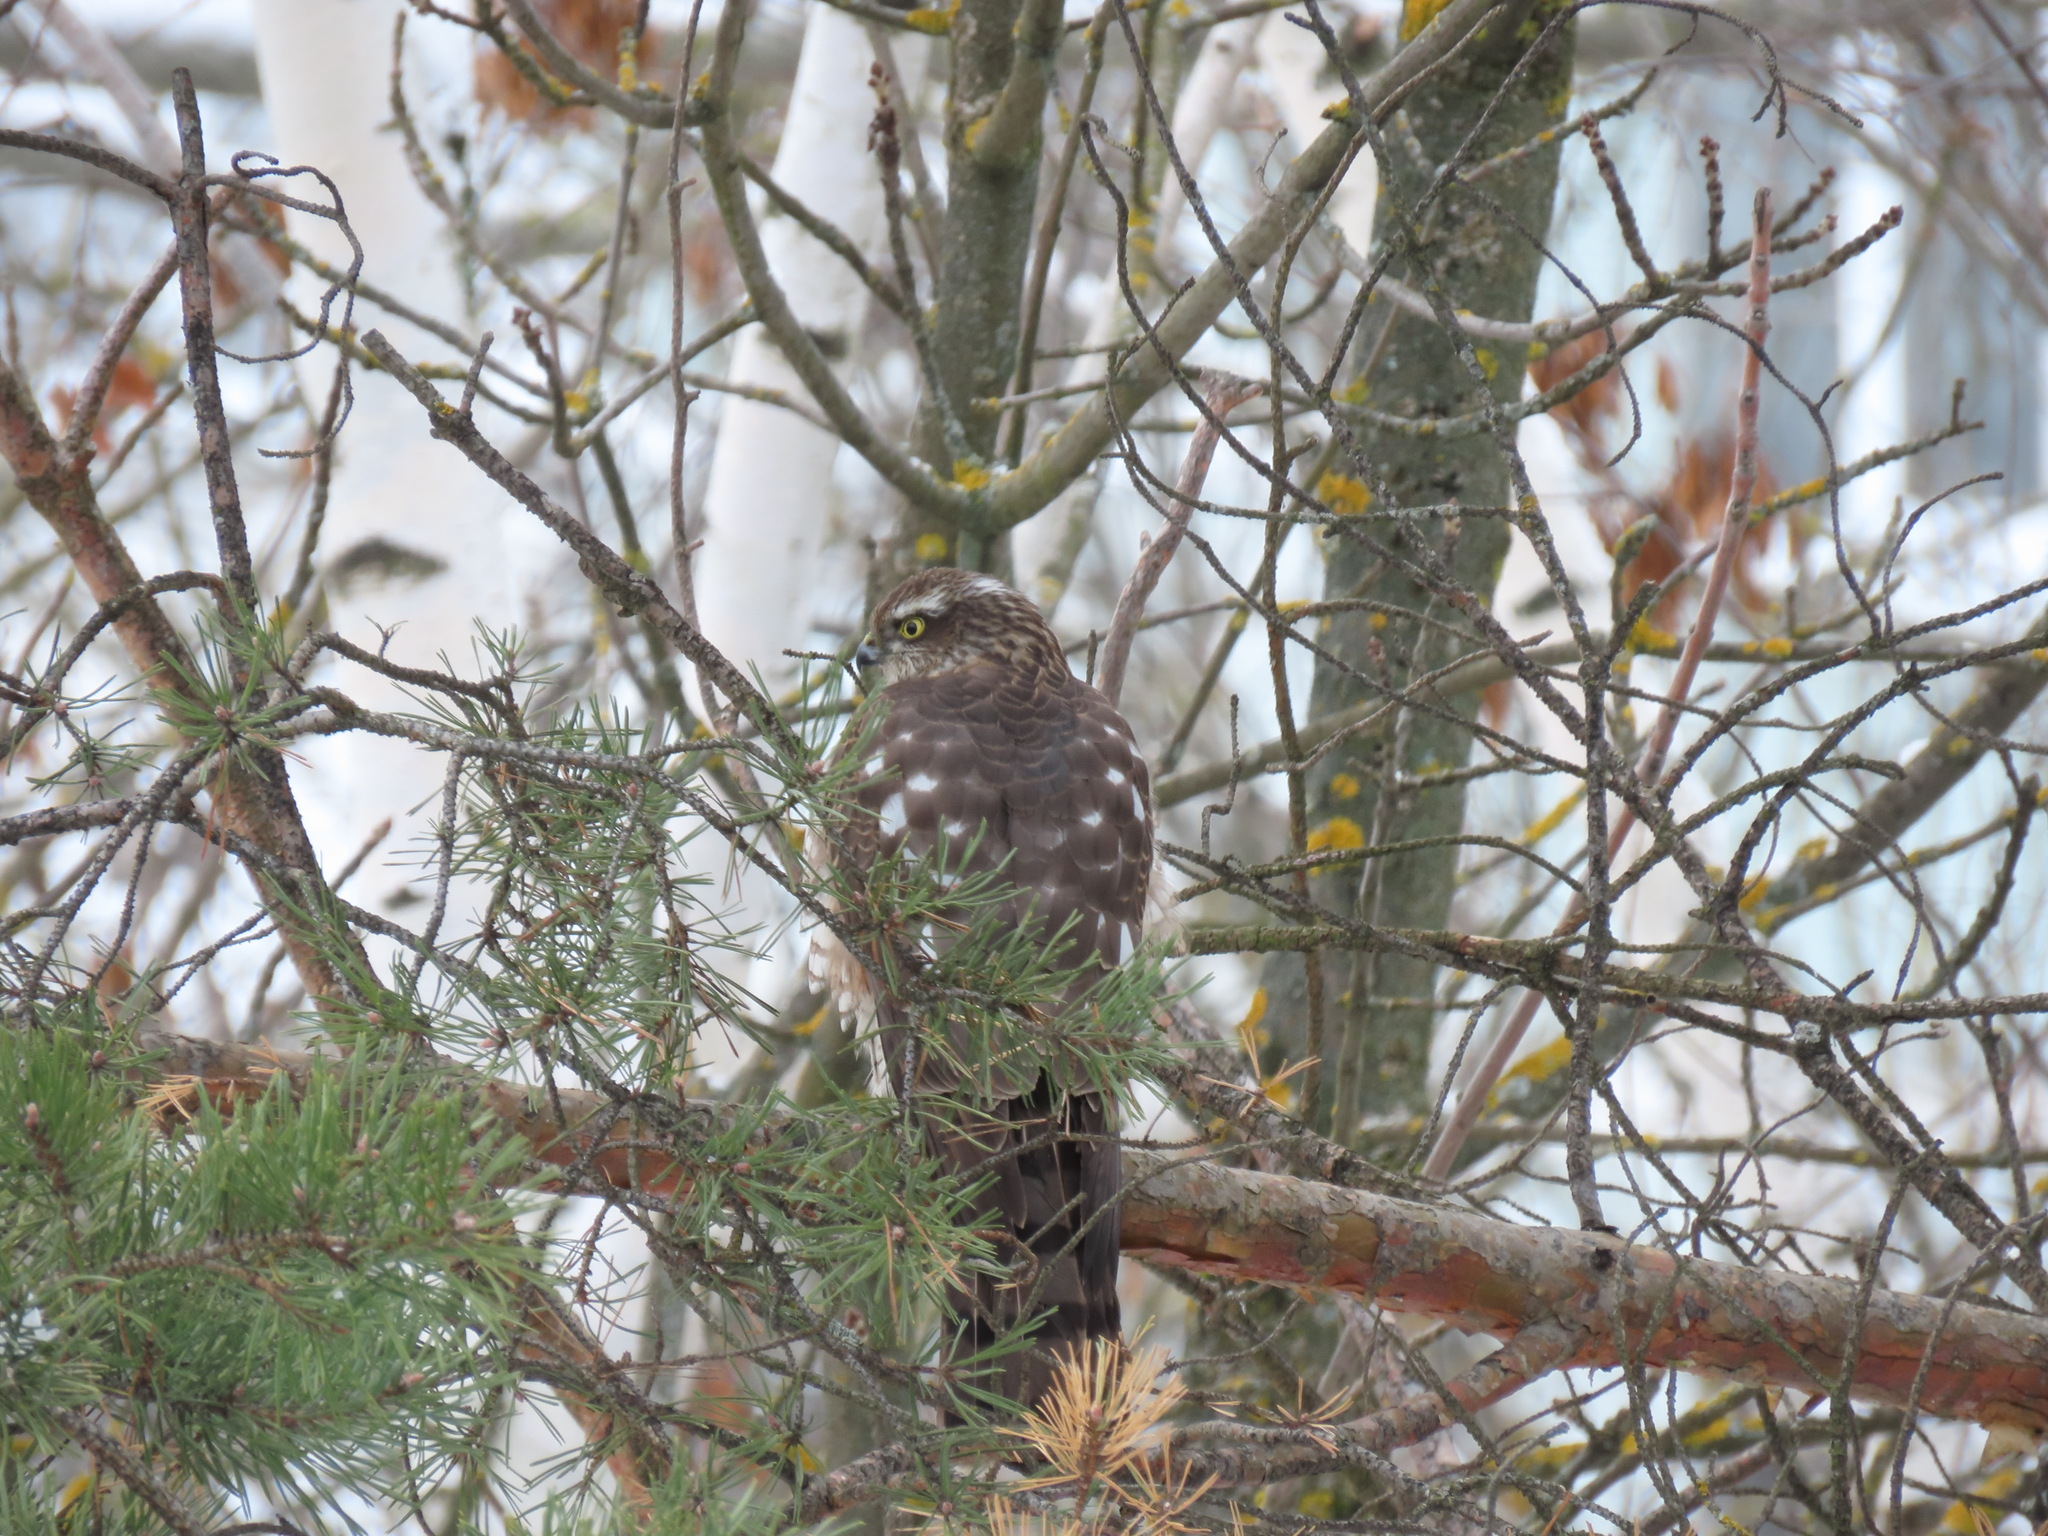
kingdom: Animalia
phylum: Chordata
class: Aves
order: Accipitriformes
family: Accipitridae
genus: Accipiter
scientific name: Accipiter nisus
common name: Eurasian sparrowhawk
